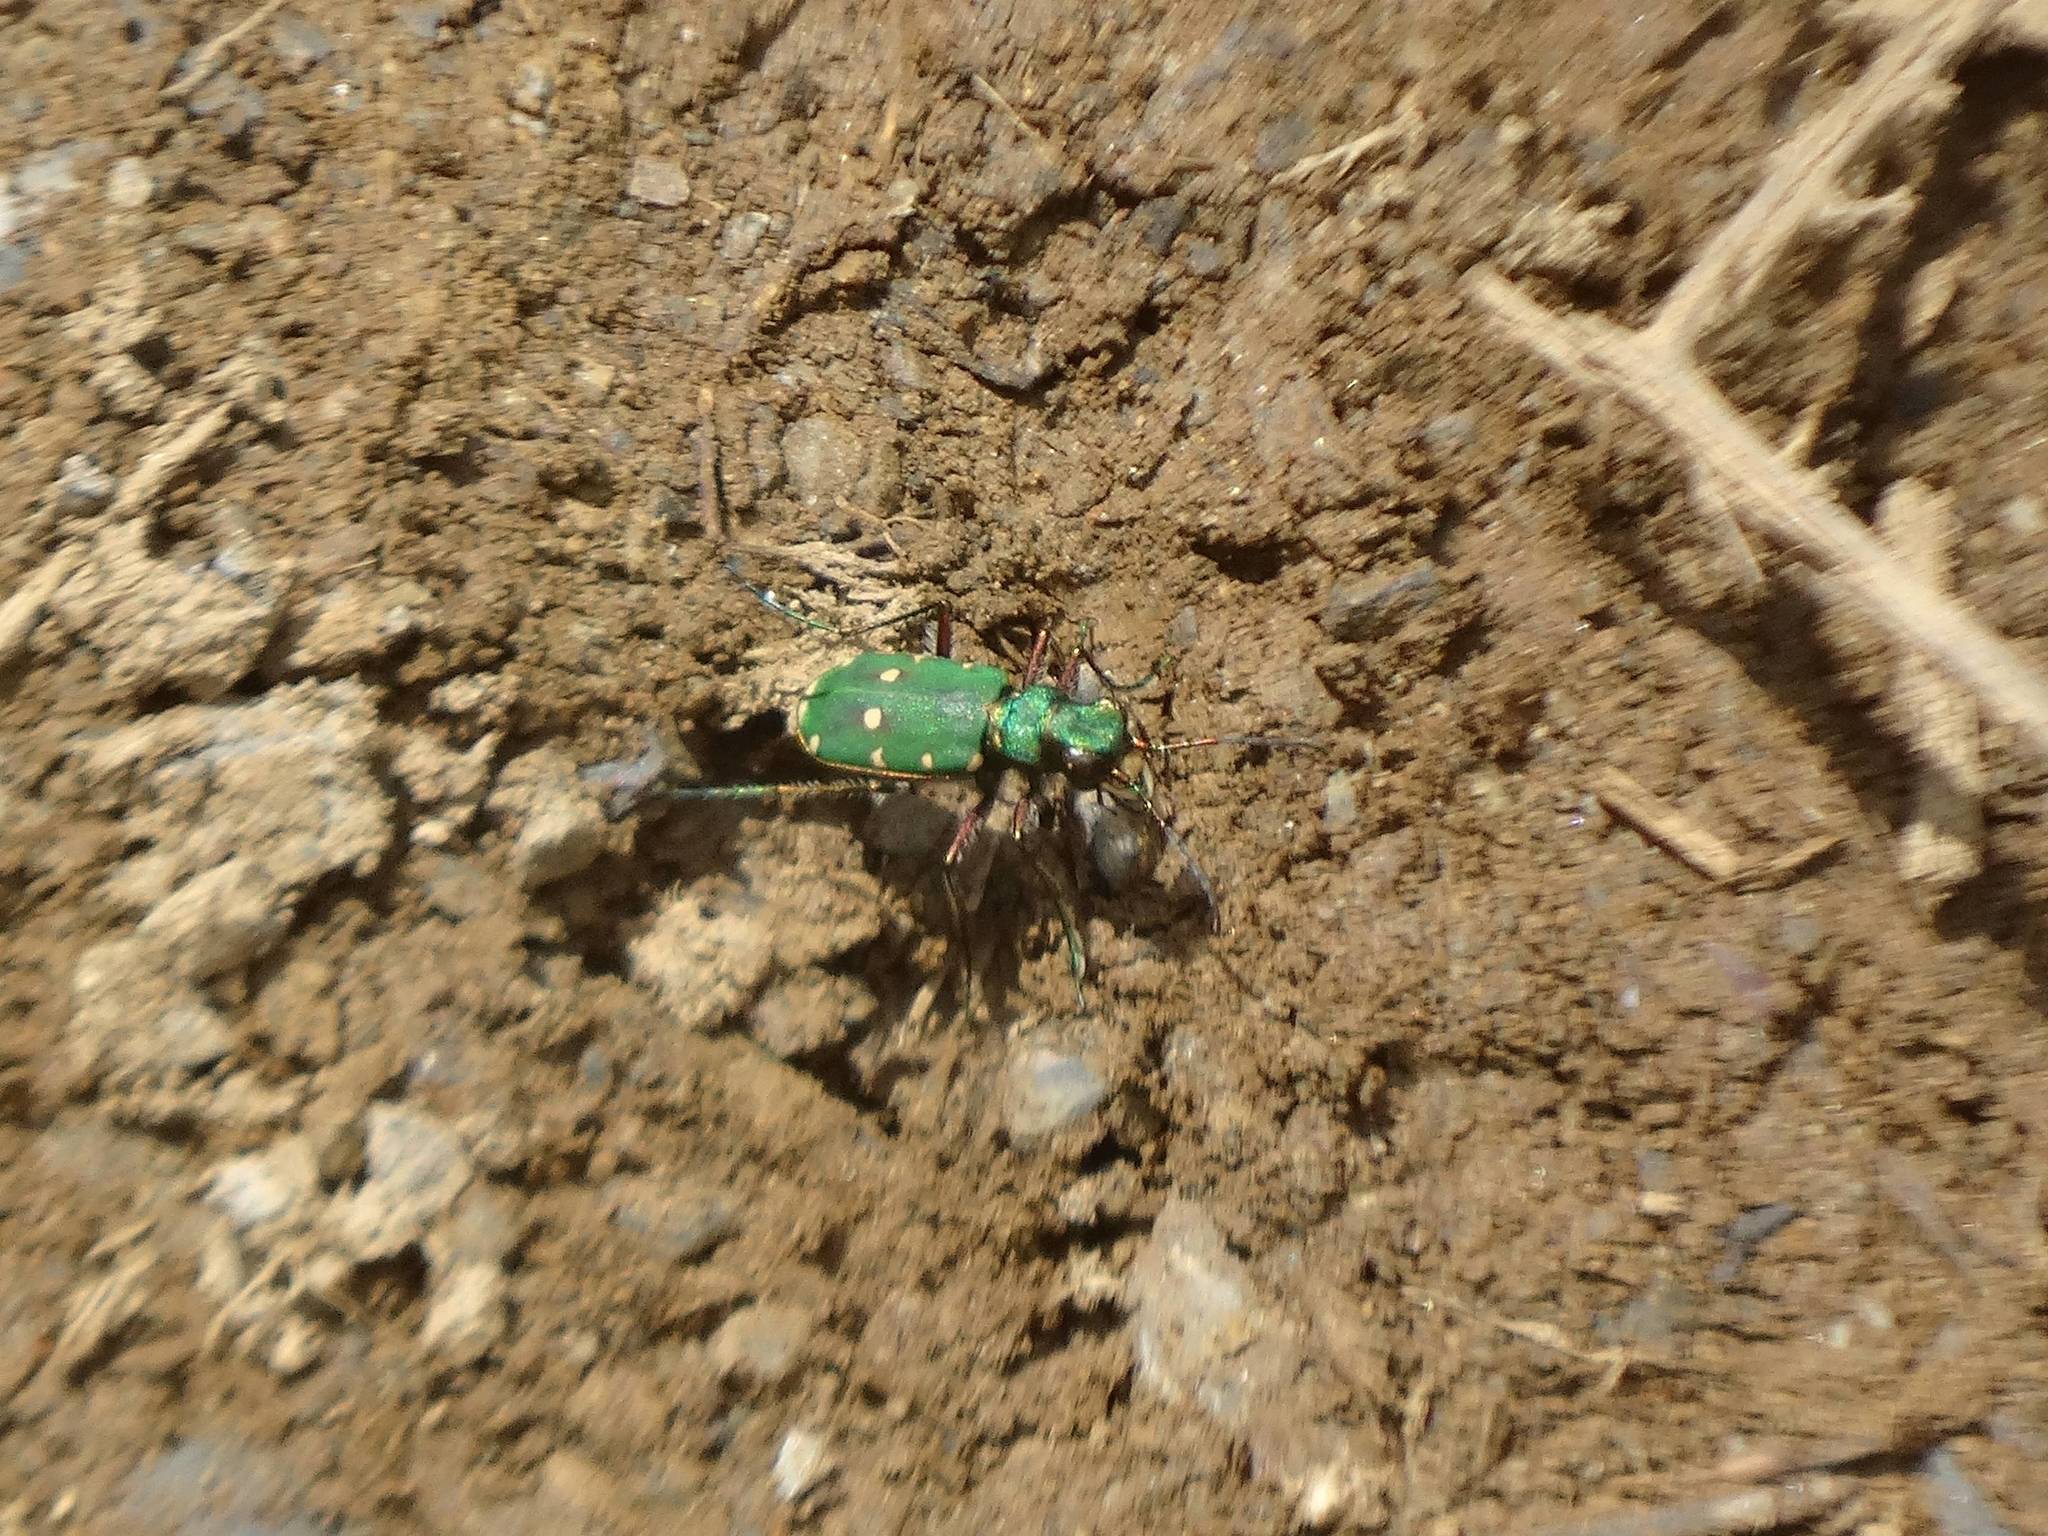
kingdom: Animalia
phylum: Arthropoda
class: Insecta
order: Coleoptera
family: Carabidae
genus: Cicindela
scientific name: Cicindela campestris
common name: Common tiger beetle
